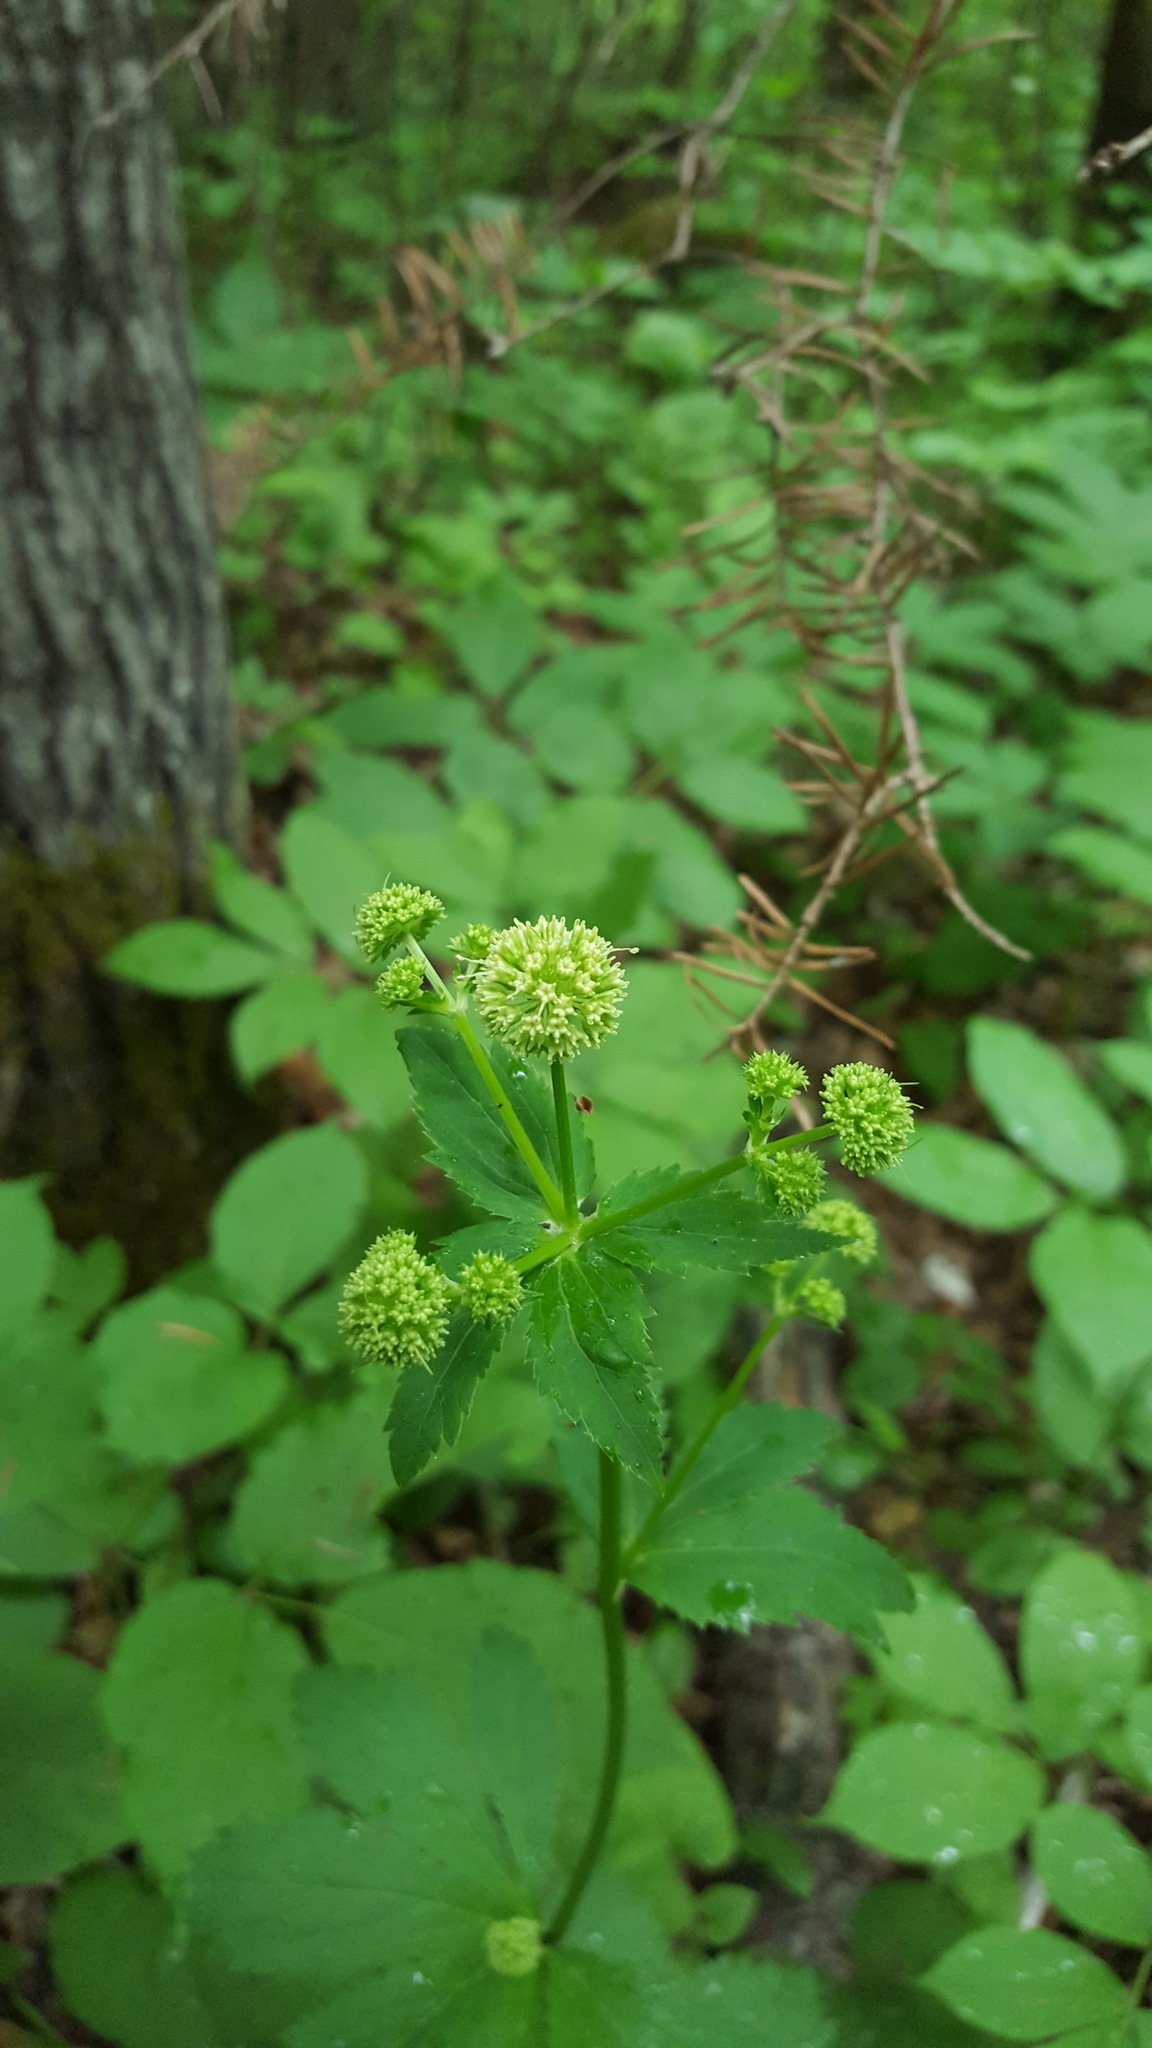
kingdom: Plantae
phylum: Tracheophyta
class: Magnoliopsida
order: Apiales
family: Apiaceae
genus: Sanicula
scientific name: Sanicula marilandica
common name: Black snakeroot
